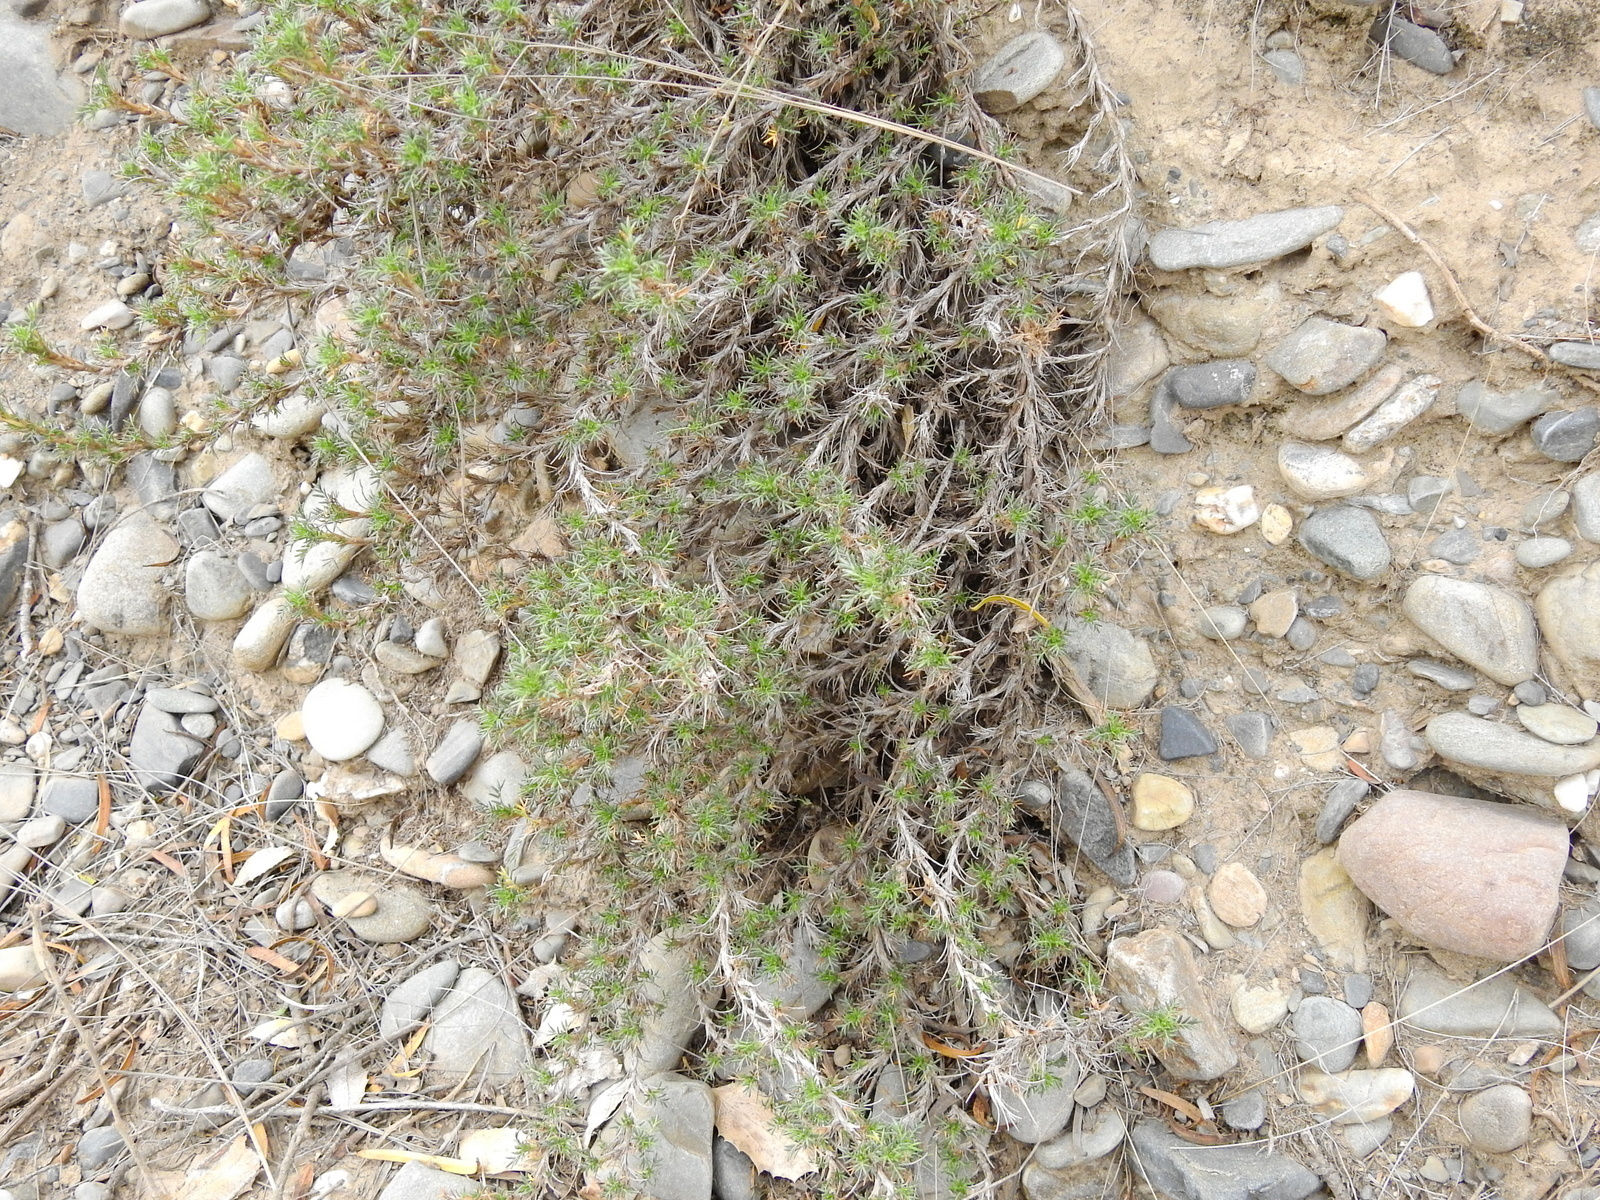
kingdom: Plantae
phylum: Tracheophyta
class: Magnoliopsida
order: Rosales
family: Rosaceae
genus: Margyricarpus
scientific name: Margyricarpus pinnatus
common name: Pearlfruit
